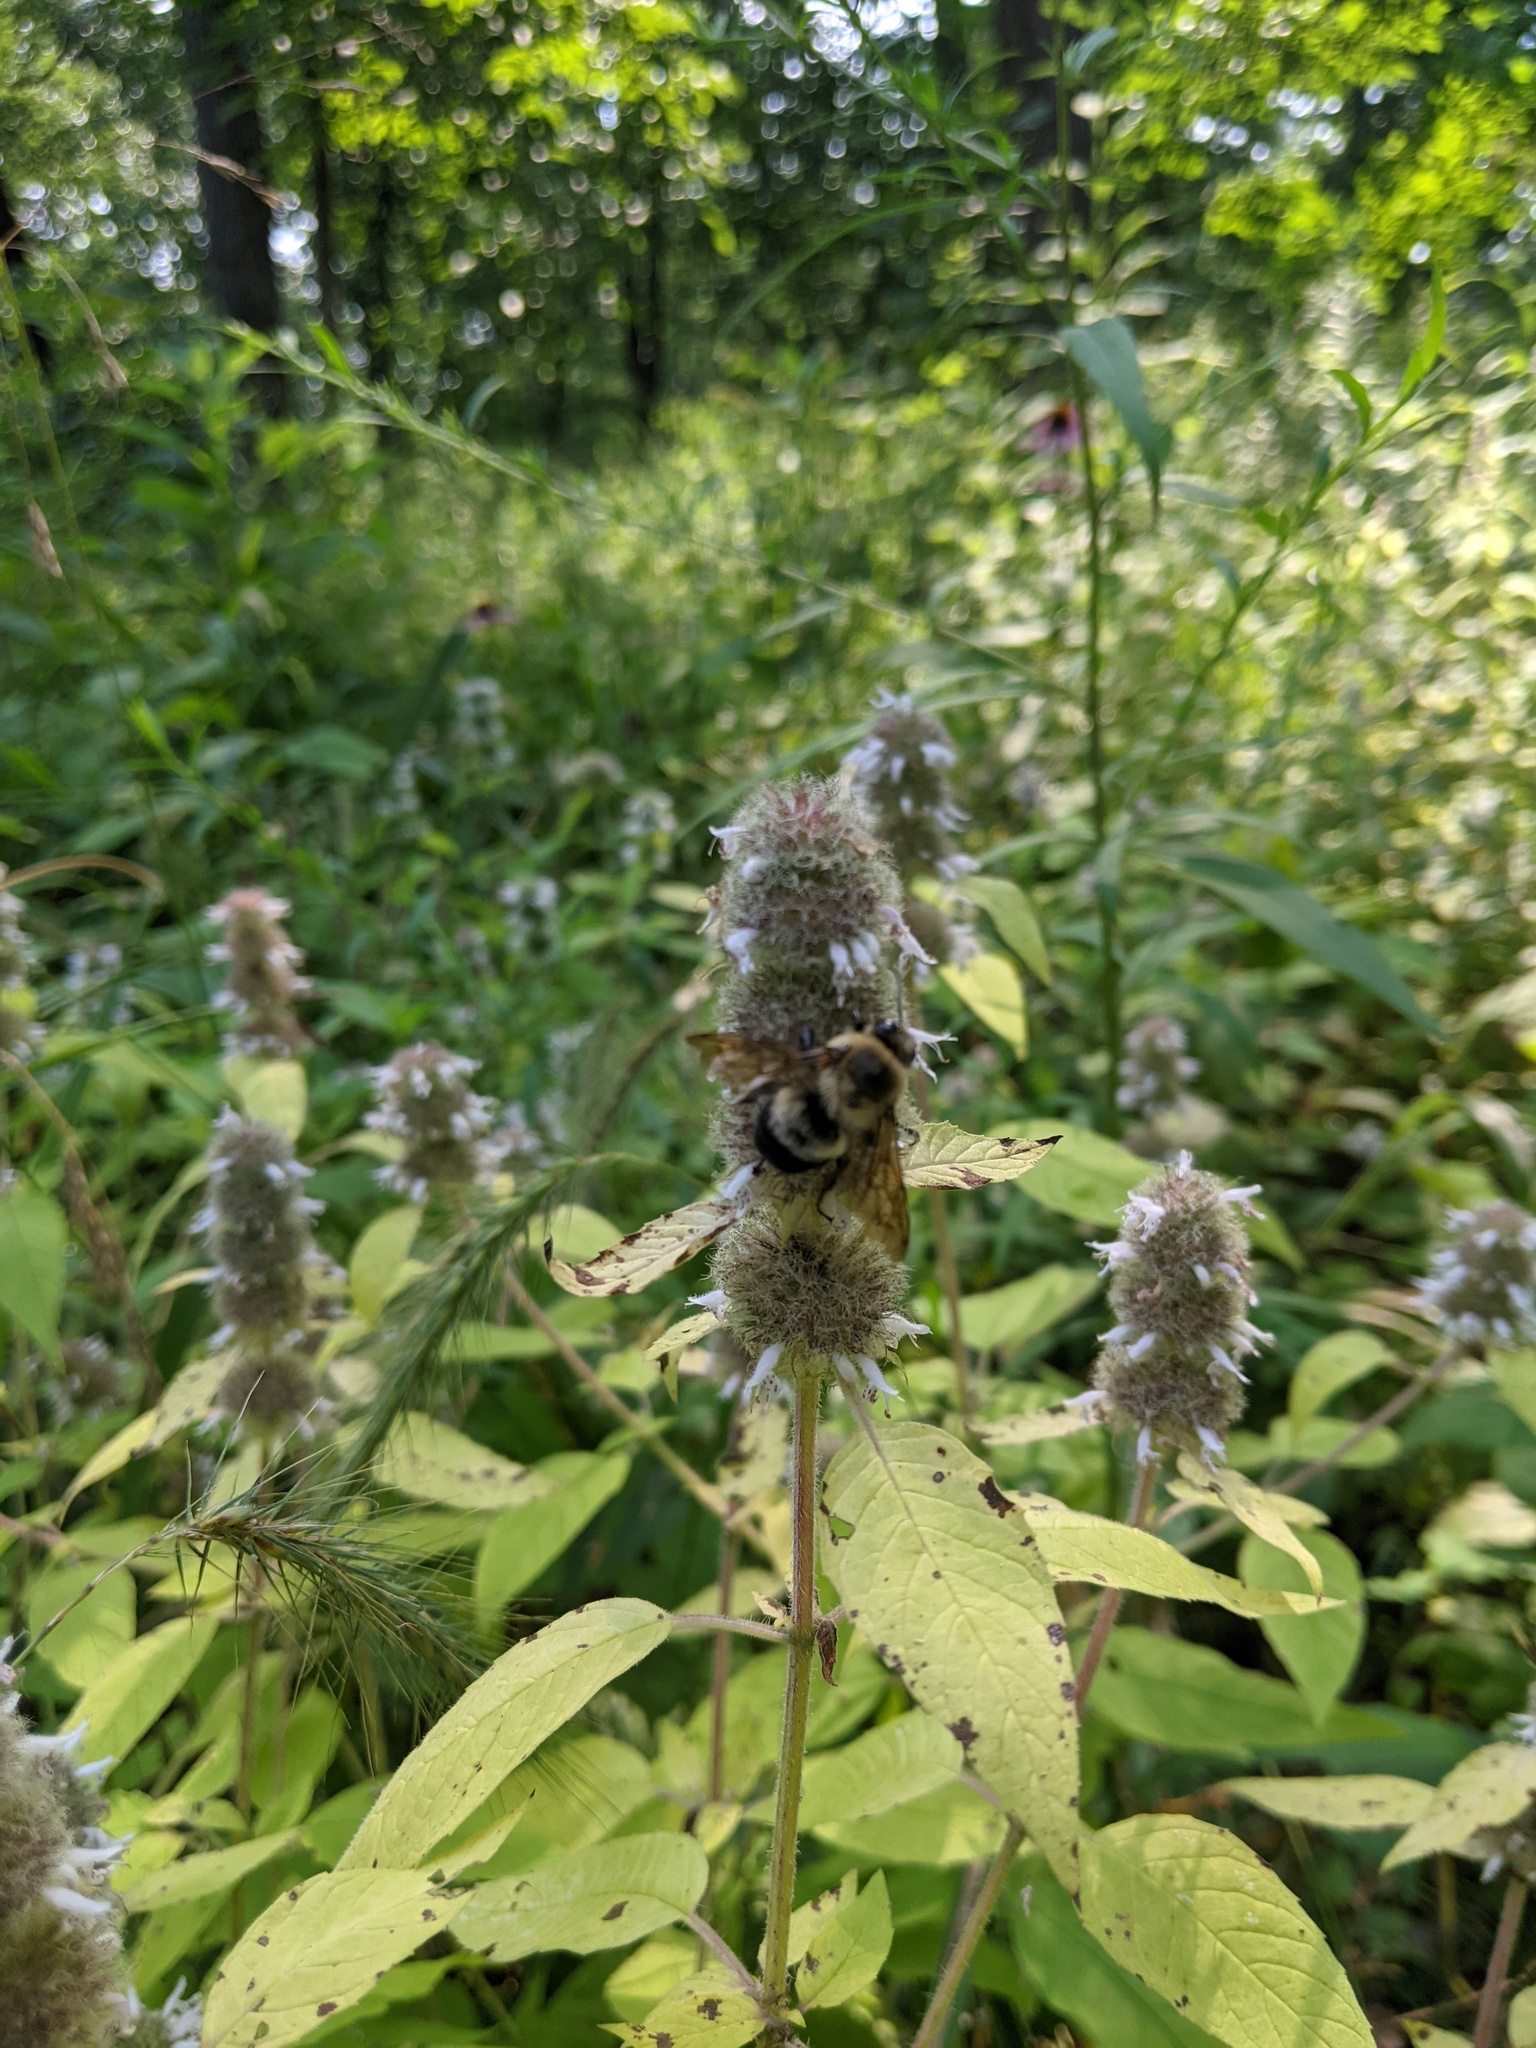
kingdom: Plantae
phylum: Tracheophyta
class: Magnoliopsida
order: Lamiales
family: Lamiaceae
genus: Blephilia
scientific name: Blephilia hirsuta
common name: Hairy blephilia
